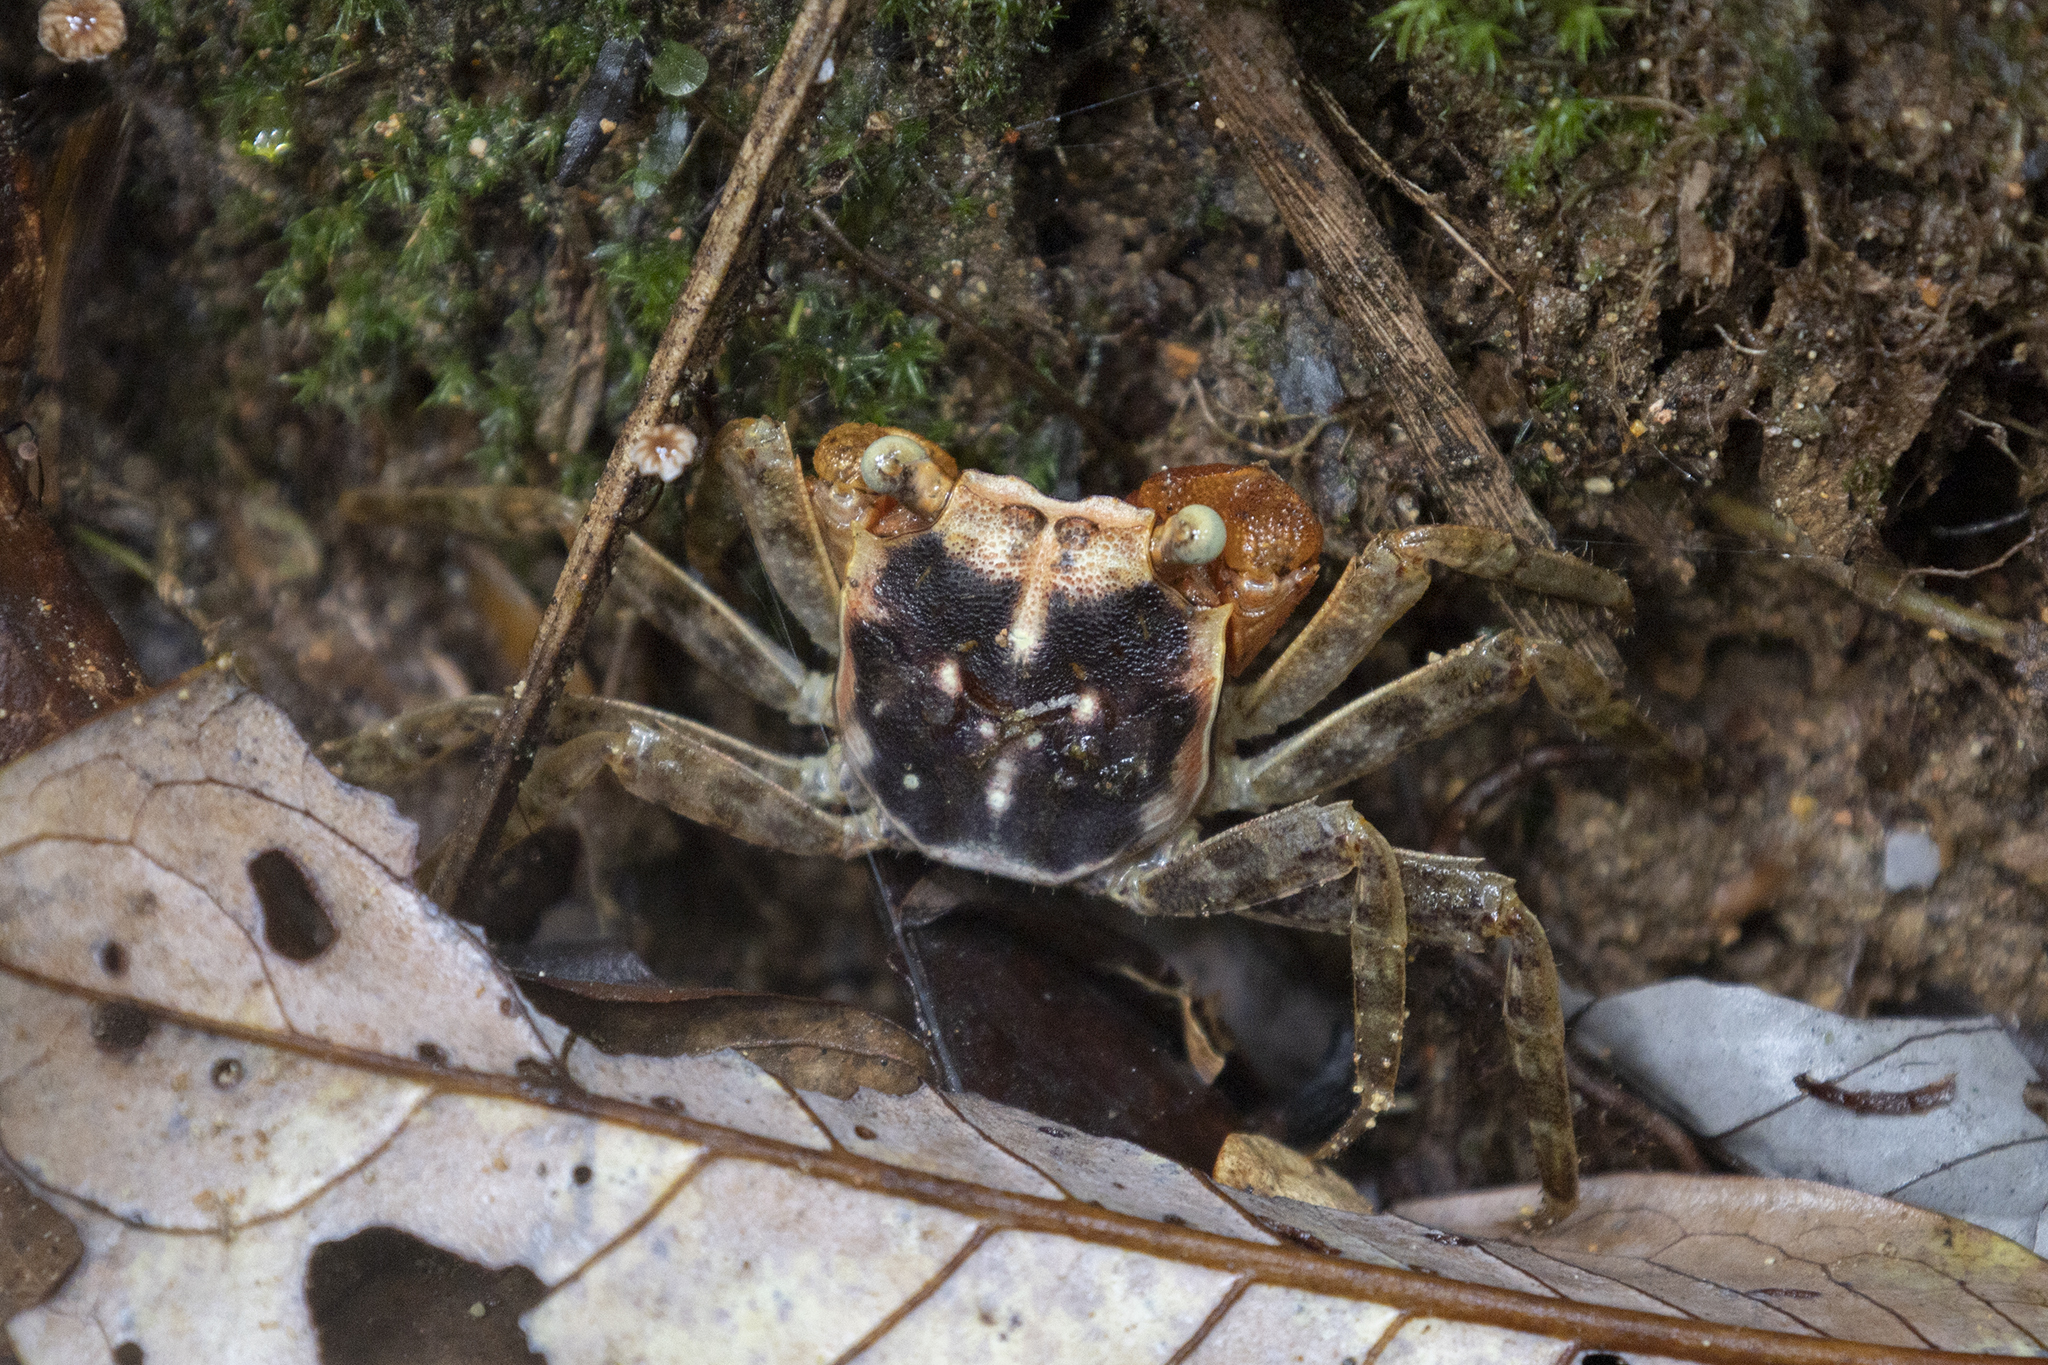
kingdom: Animalia
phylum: Arthropoda
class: Malacostraca
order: Decapoda
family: Sesarmidae
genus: Armases
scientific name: Armases angustum
